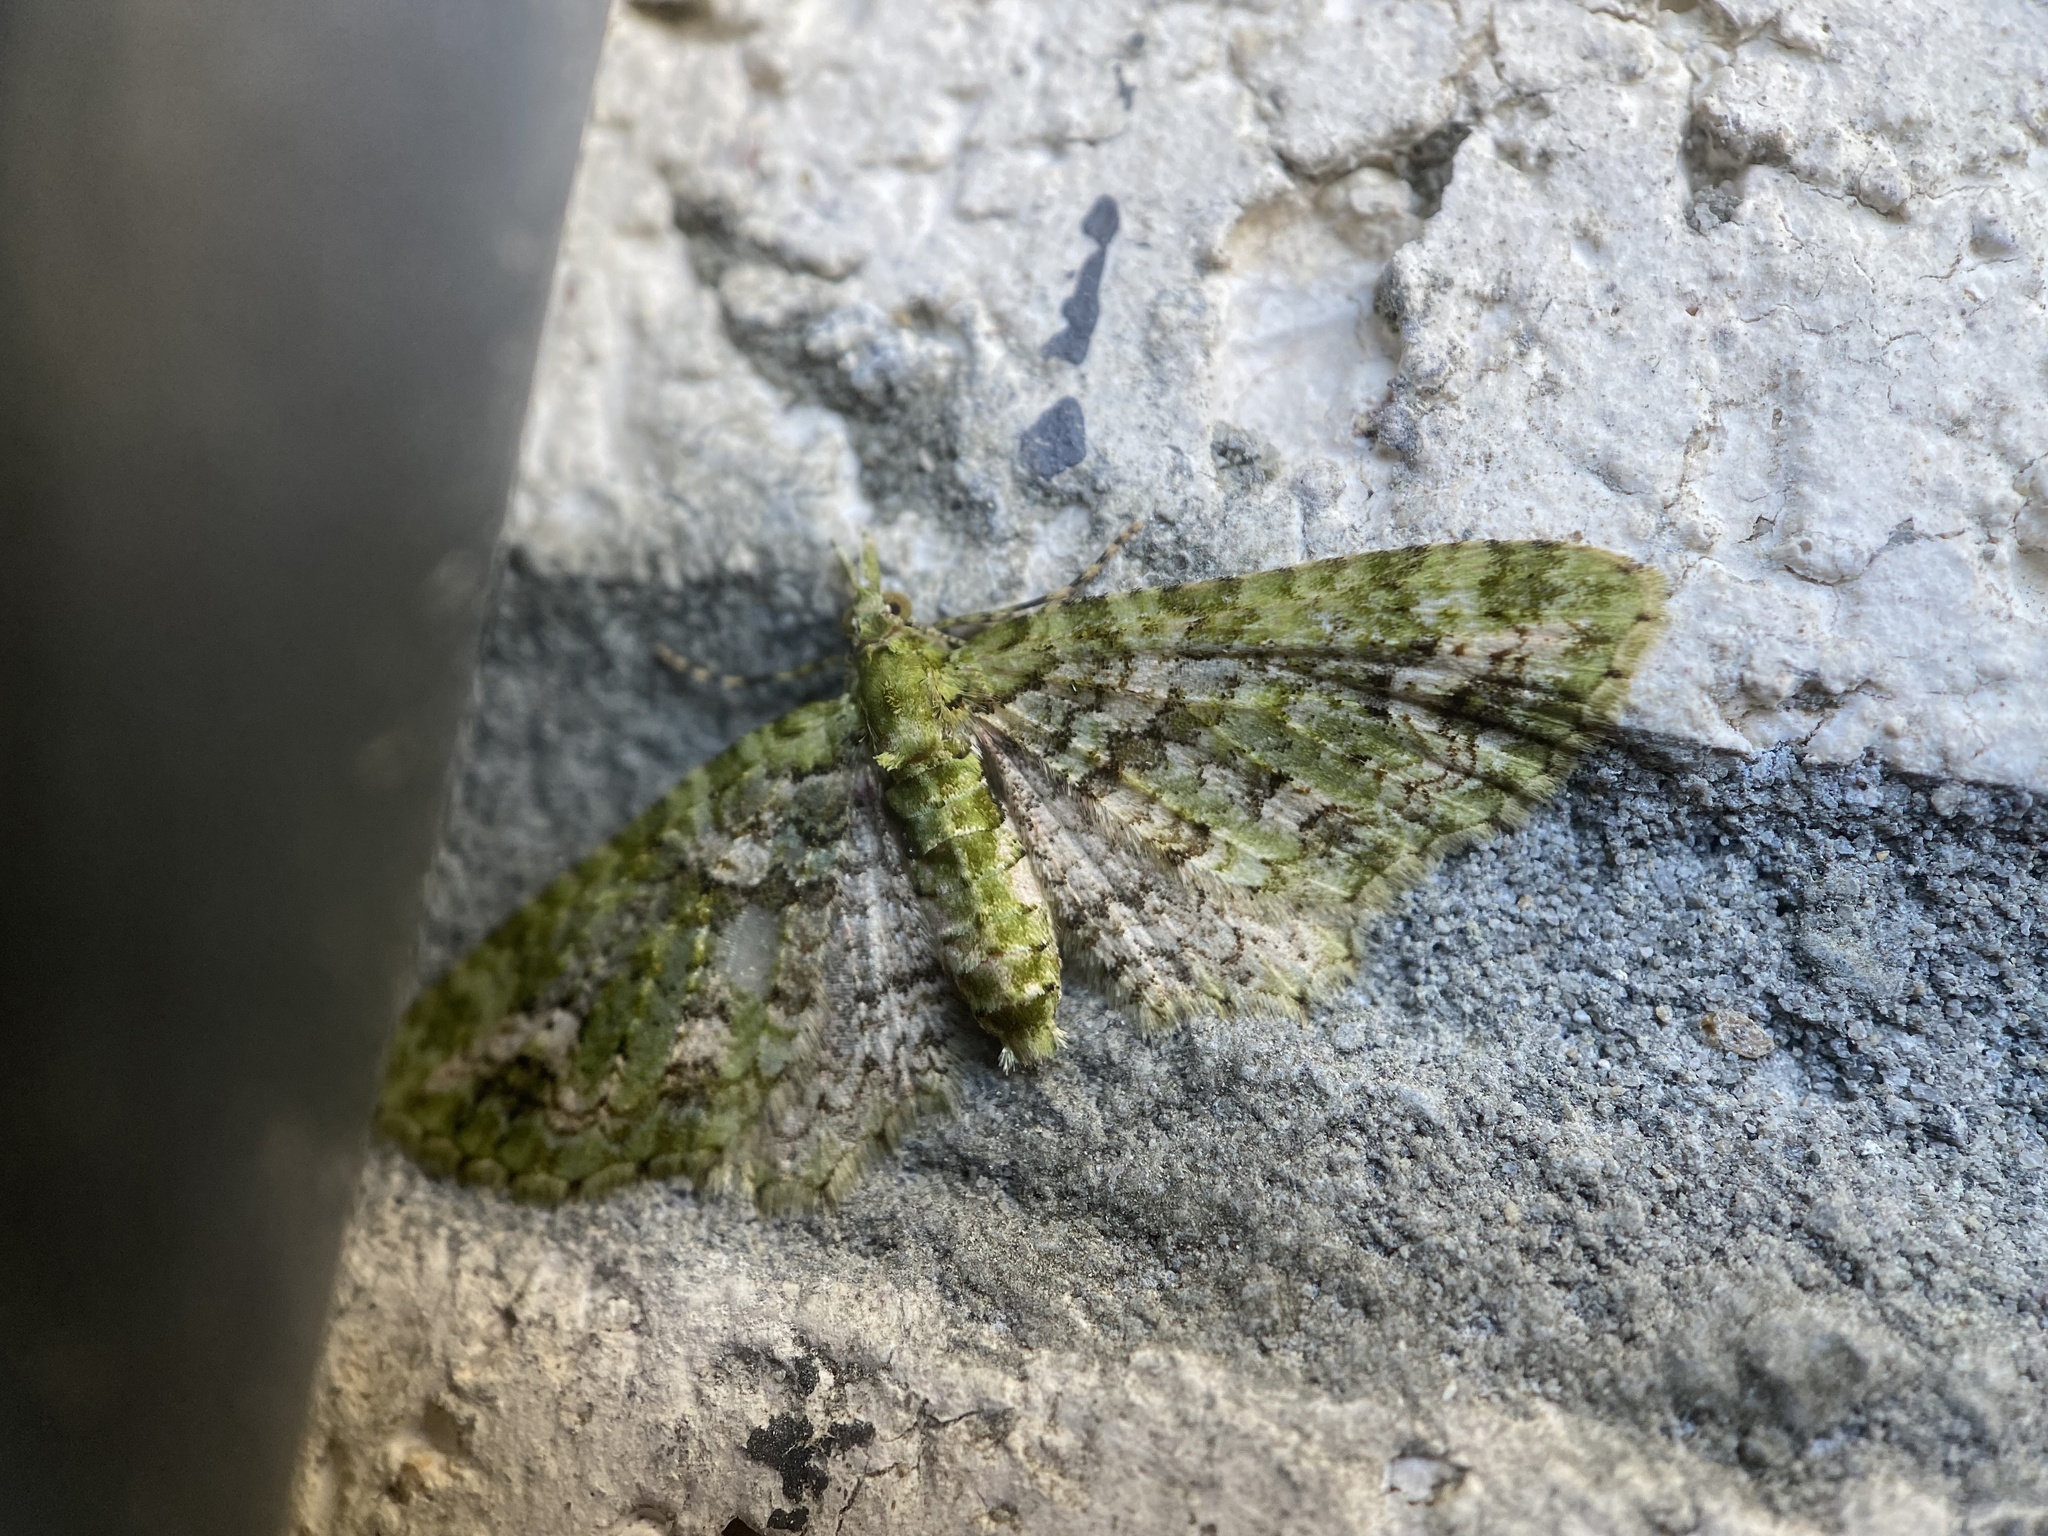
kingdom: Animalia
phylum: Arthropoda
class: Insecta
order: Lepidoptera
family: Geometridae
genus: Pasiphila
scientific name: Pasiphila muscosata
